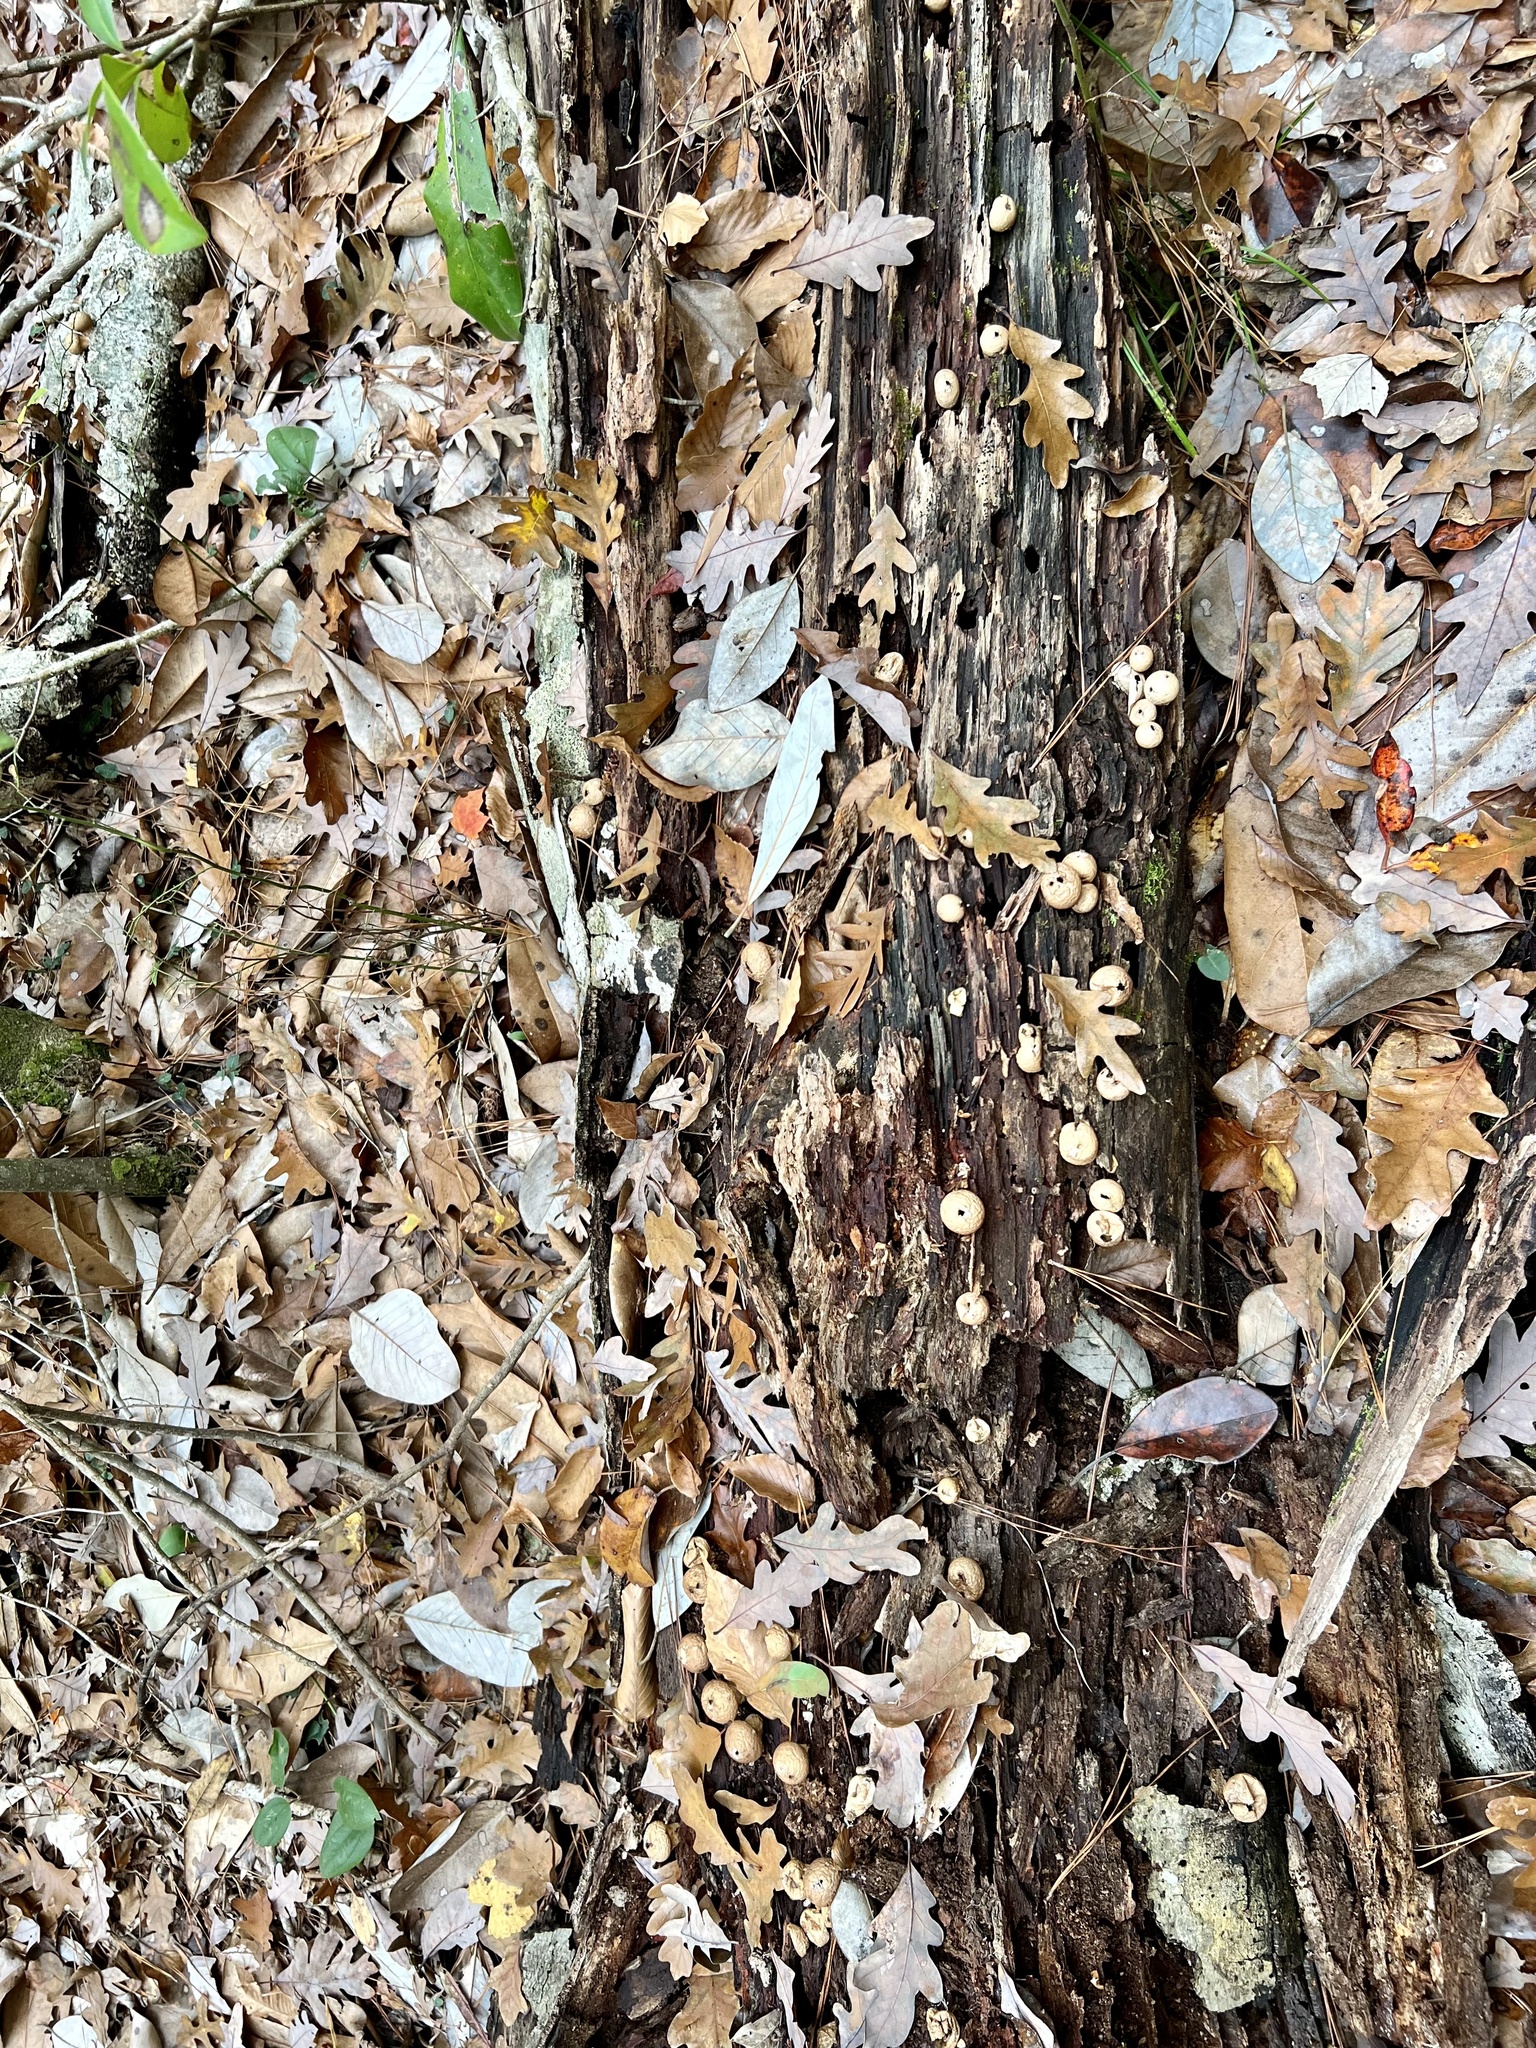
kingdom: Fungi
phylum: Basidiomycota
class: Agaricomycetes
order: Agaricales
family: Lycoperdaceae
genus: Apioperdon
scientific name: Apioperdon pyriforme
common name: Pear-shaped puffball
